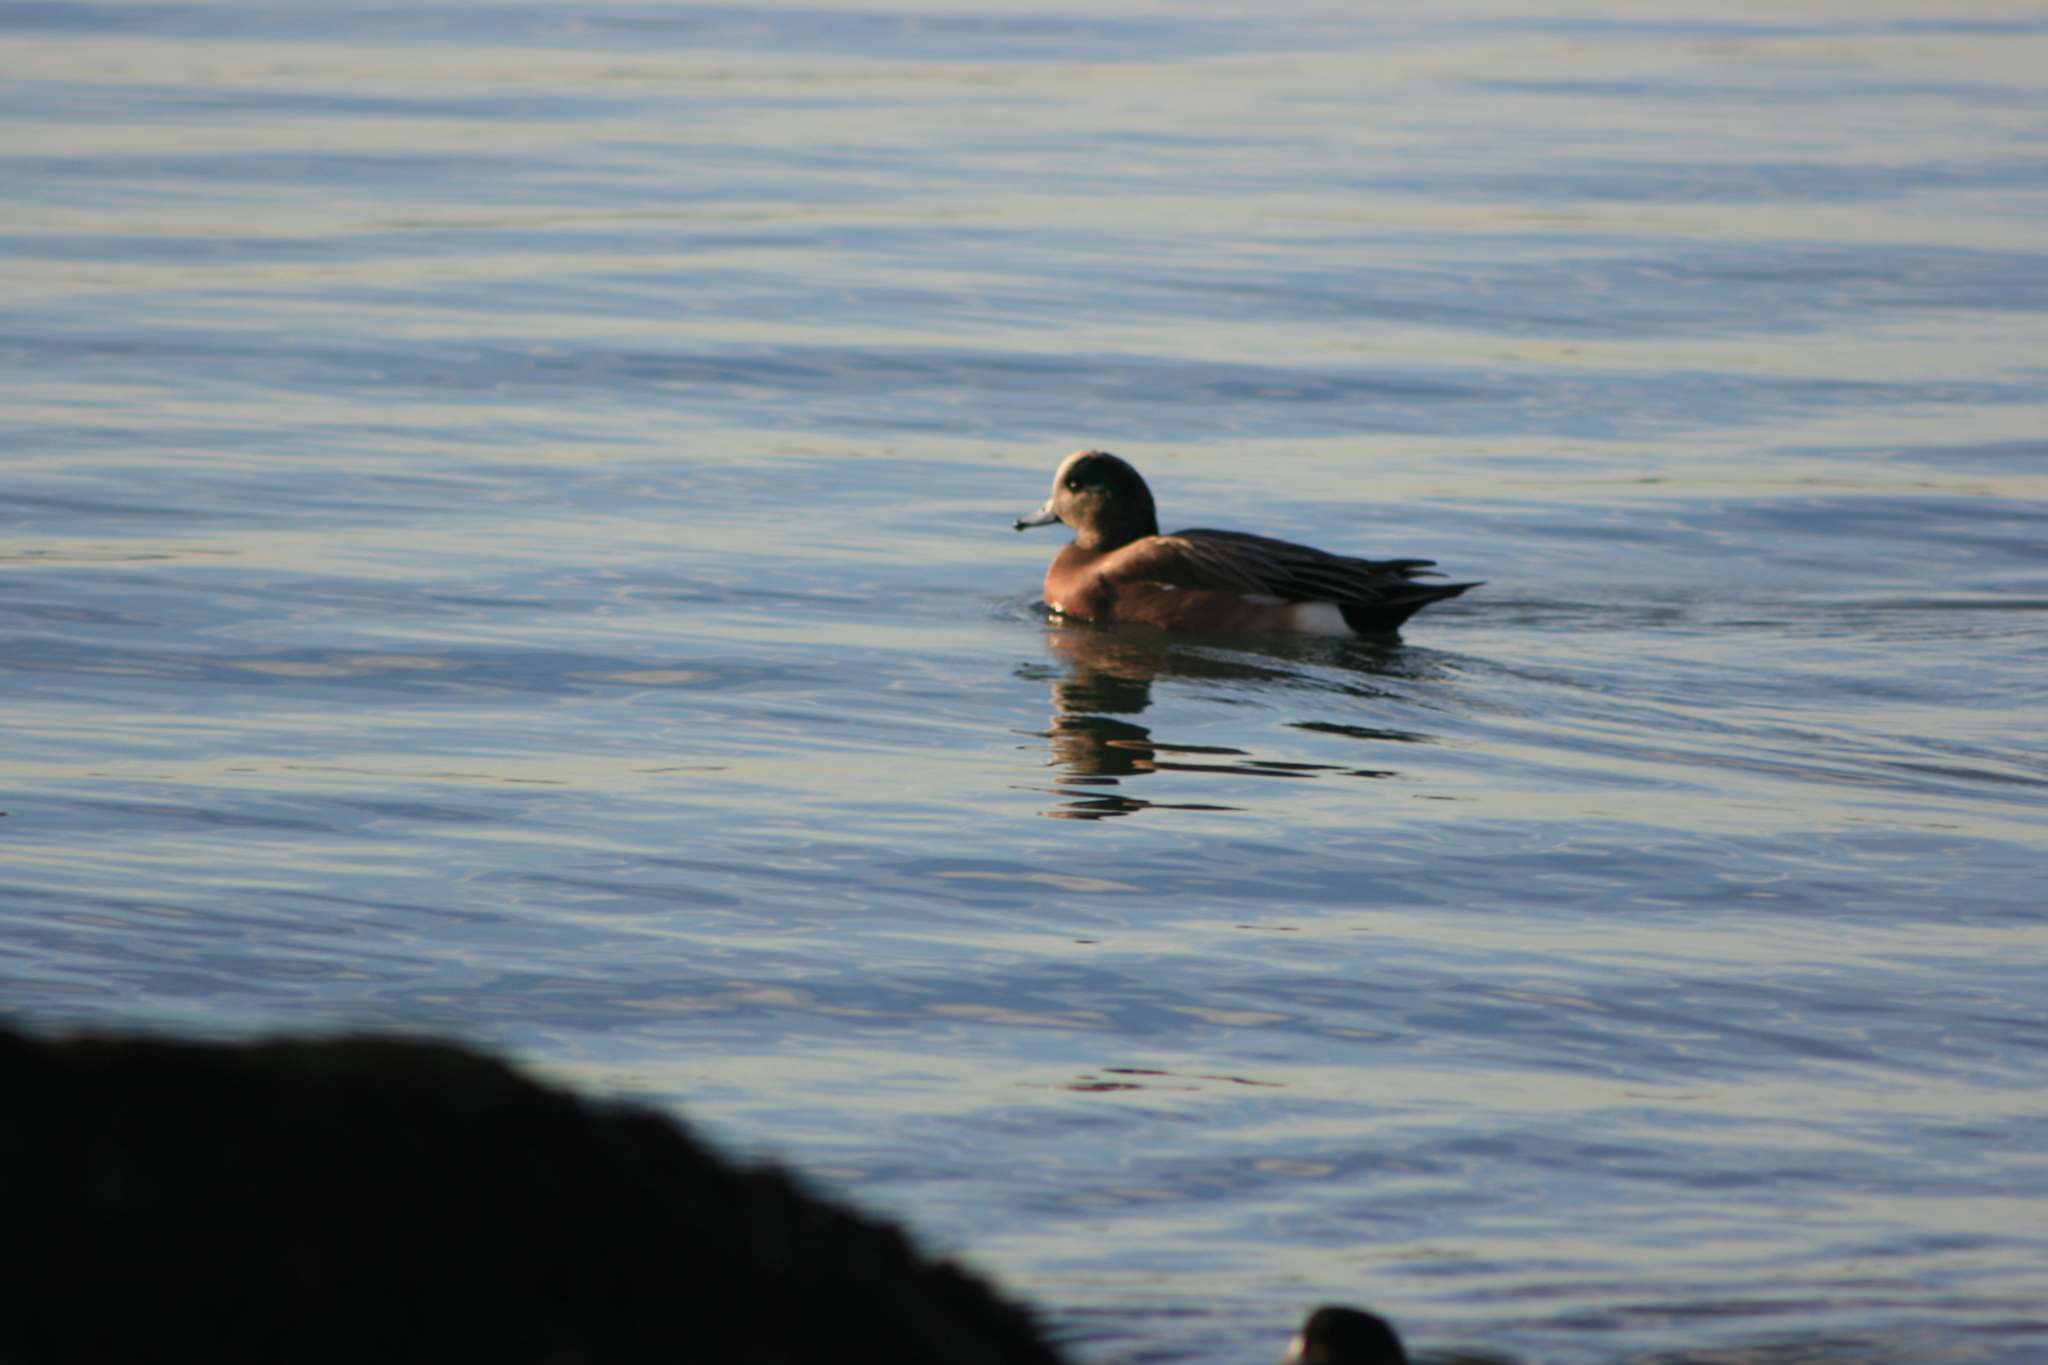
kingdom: Animalia
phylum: Chordata
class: Aves
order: Anseriformes
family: Anatidae
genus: Mareca
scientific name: Mareca americana
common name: American wigeon
